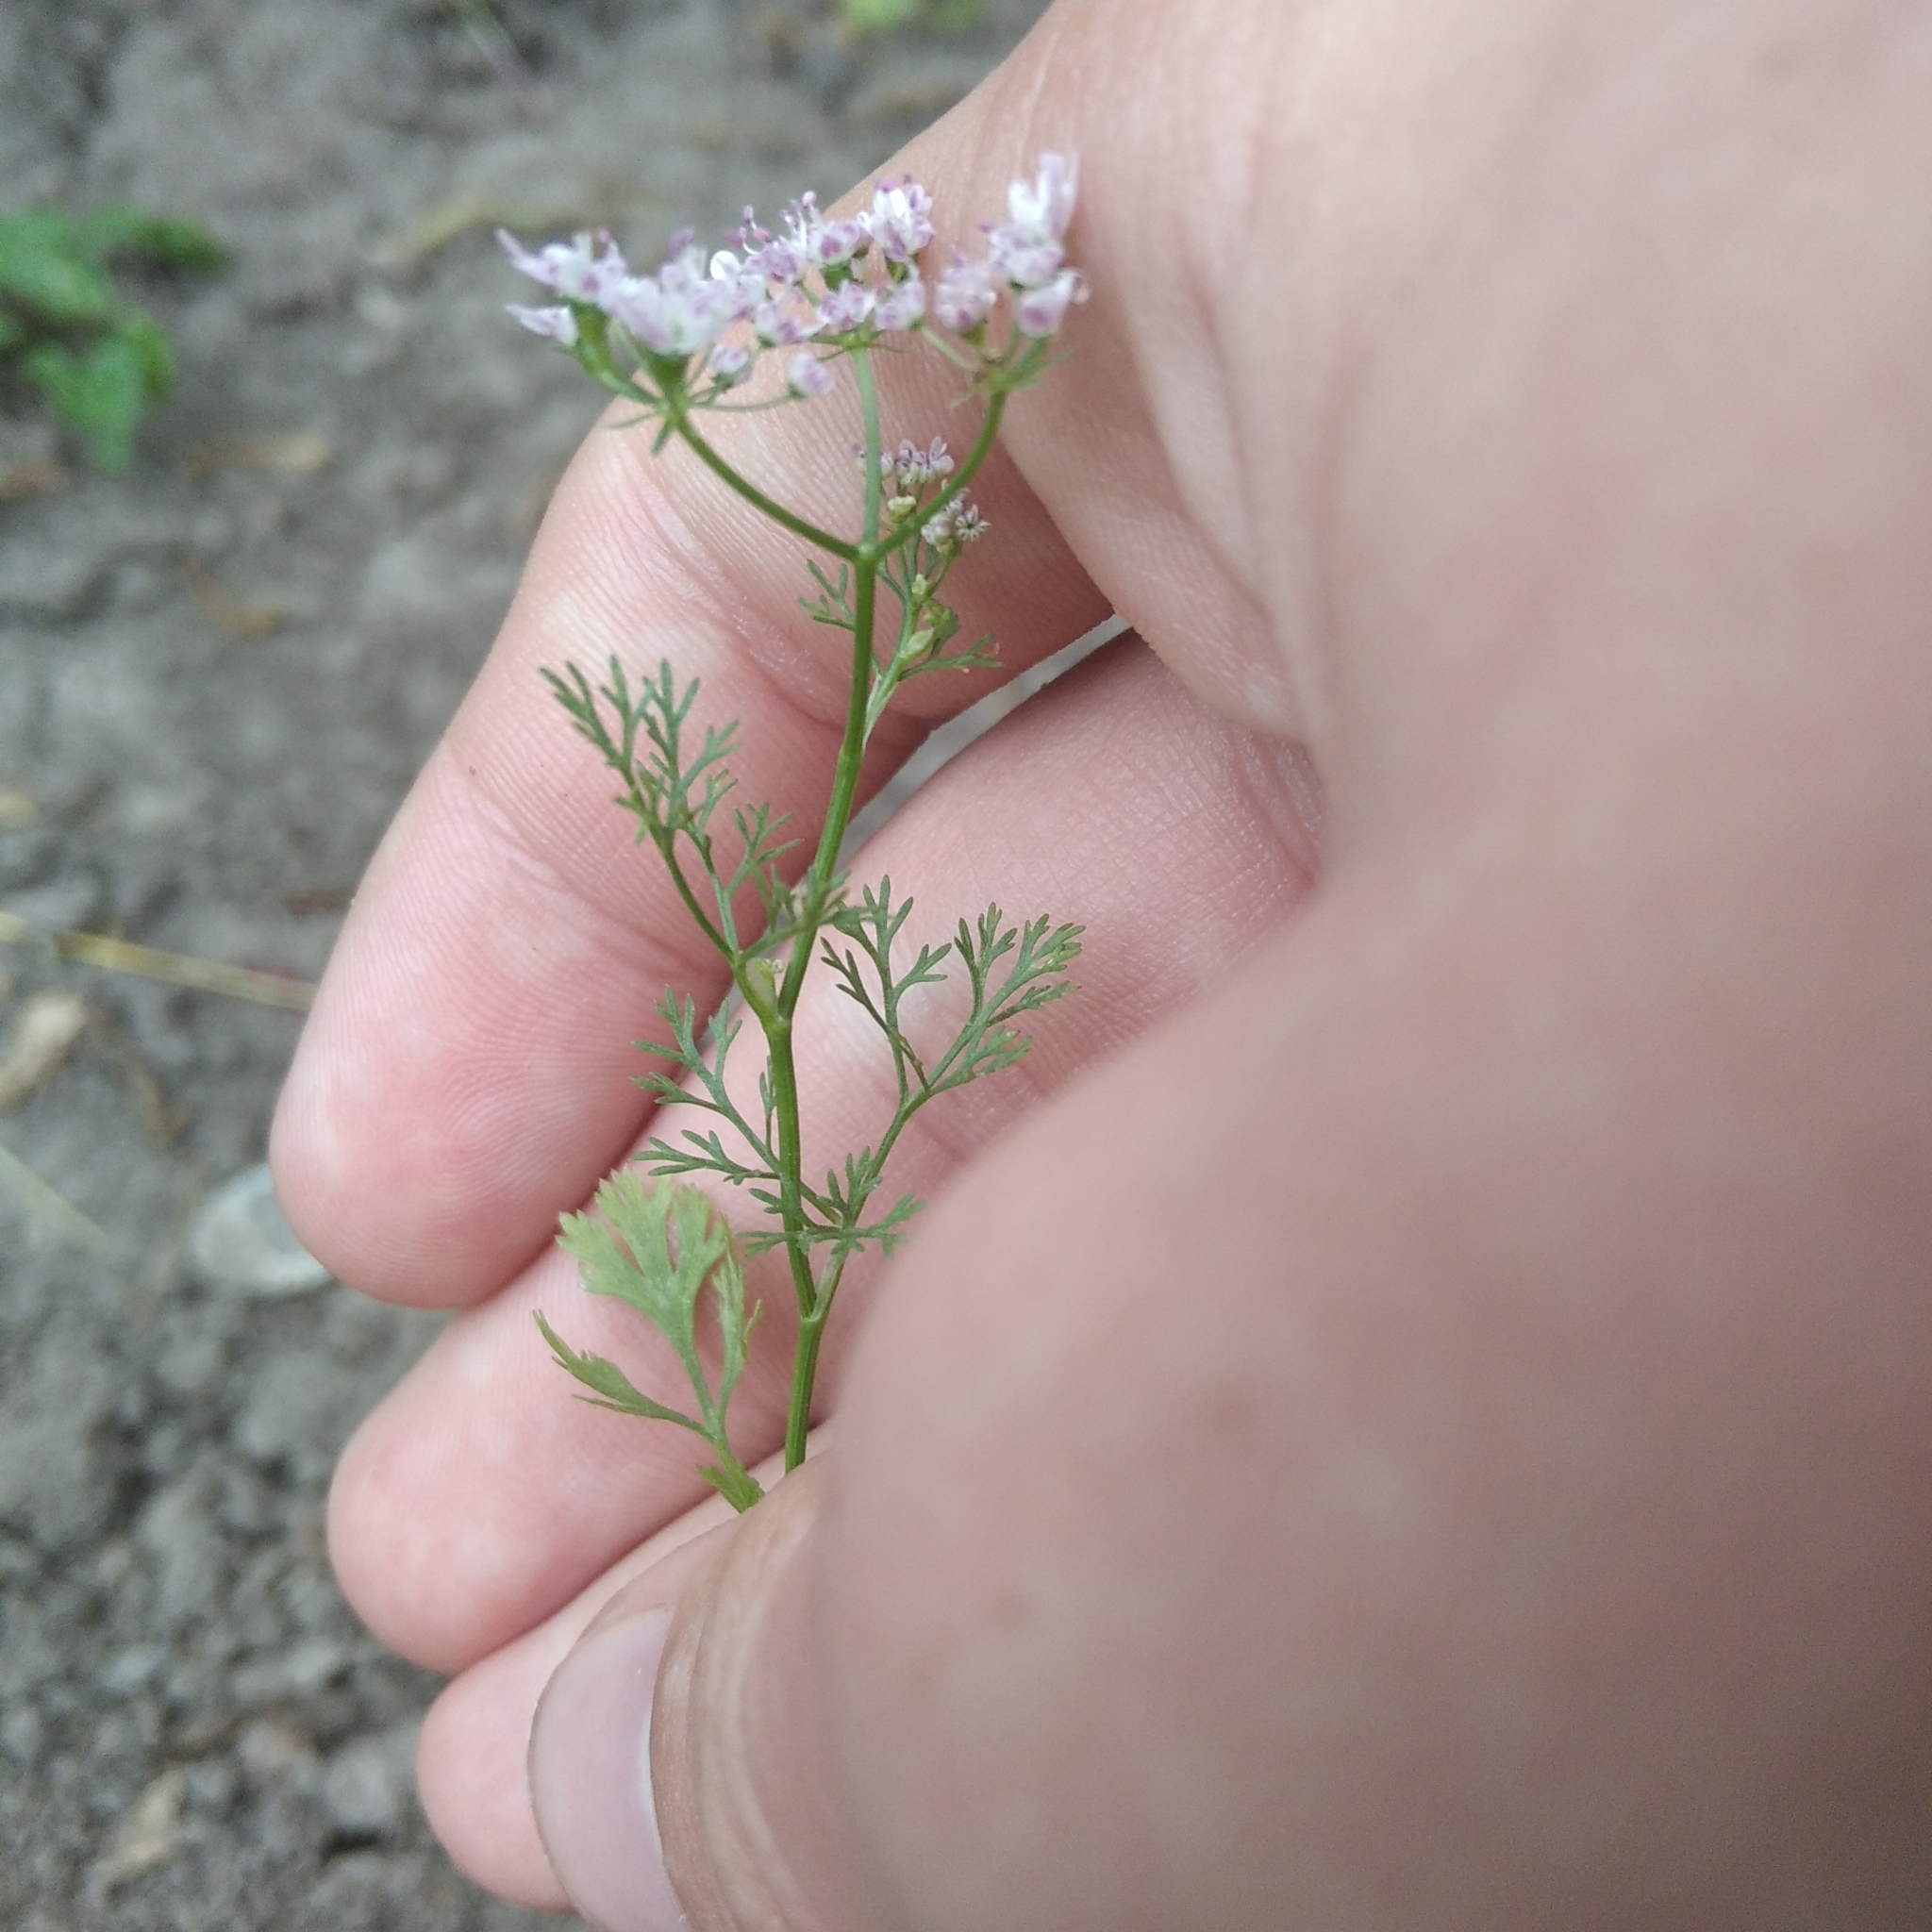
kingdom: Plantae
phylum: Tracheophyta
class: Magnoliopsida
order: Apiales
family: Apiaceae
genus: Coriandrum
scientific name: Coriandrum sativum
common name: Coriander
